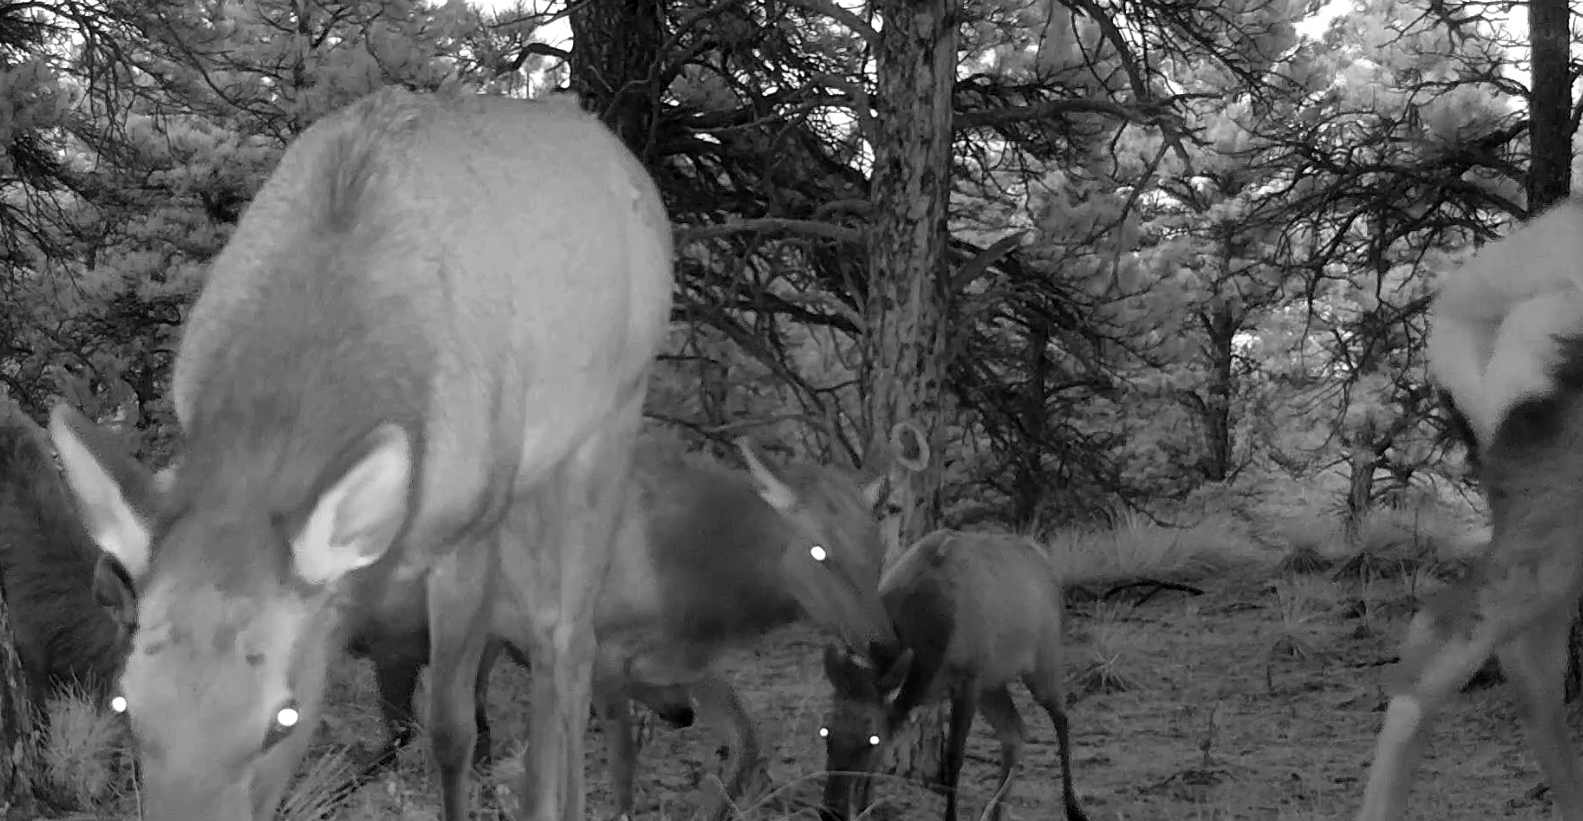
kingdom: Animalia
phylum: Chordata
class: Mammalia
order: Artiodactyla
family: Cervidae
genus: Cervus
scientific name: Cervus elaphus
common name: Red deer
